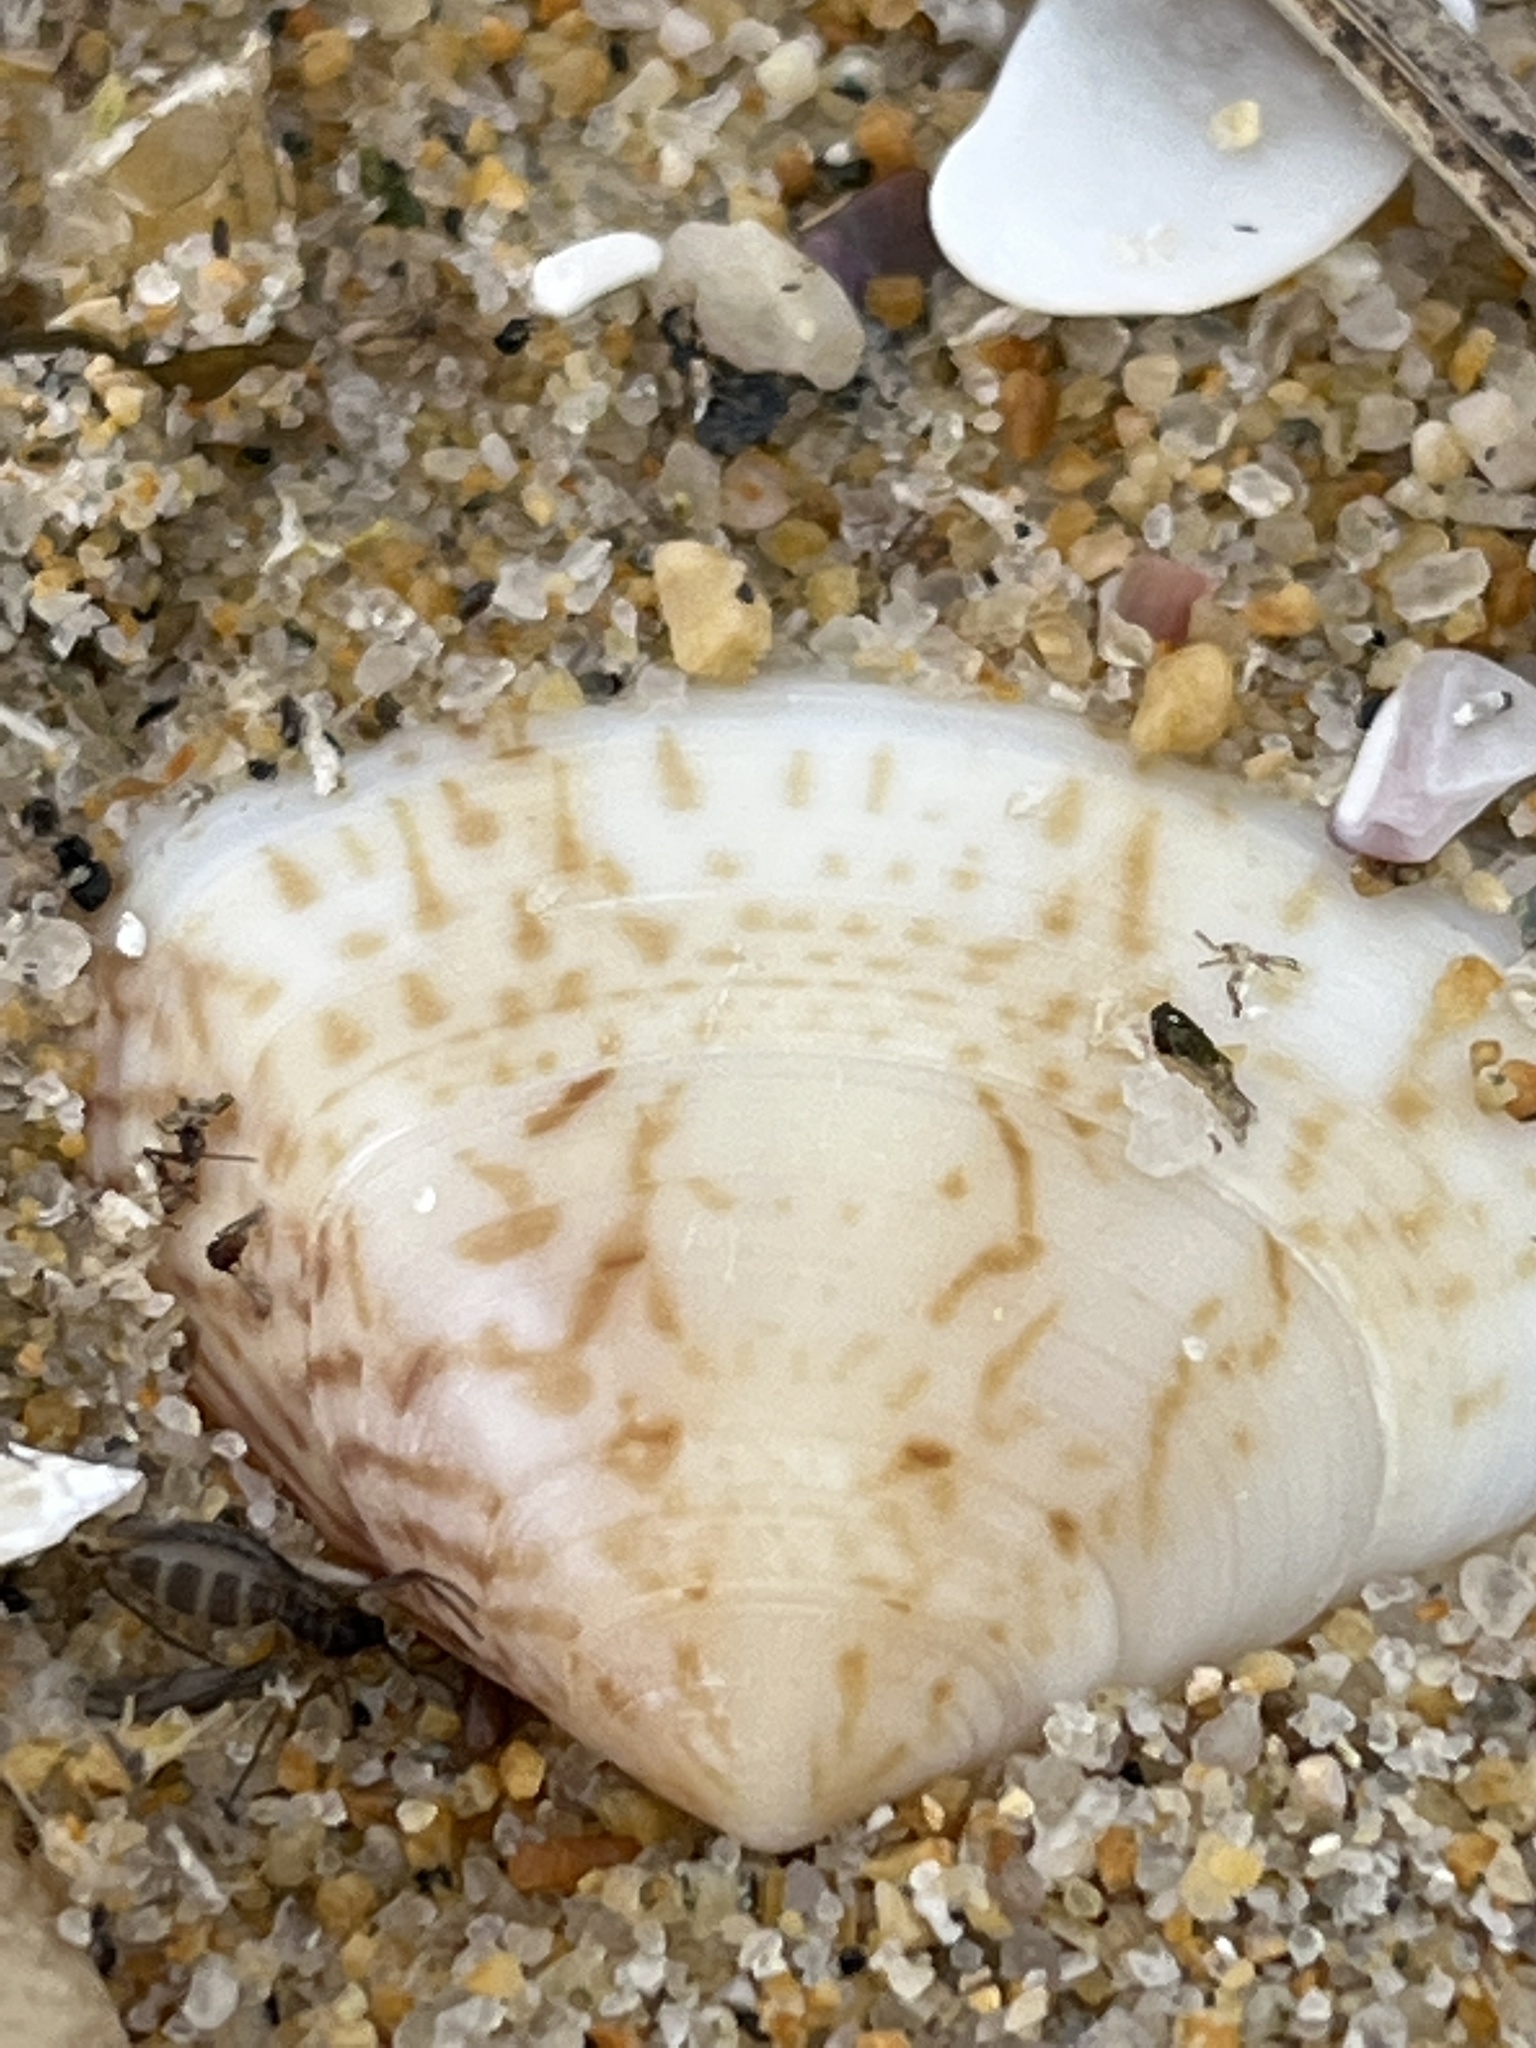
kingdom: Animalia
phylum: Mollusca
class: Bivalvia
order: Venerida
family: Veneridae
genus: Macridiscus
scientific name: Macridiscus aequilatera
